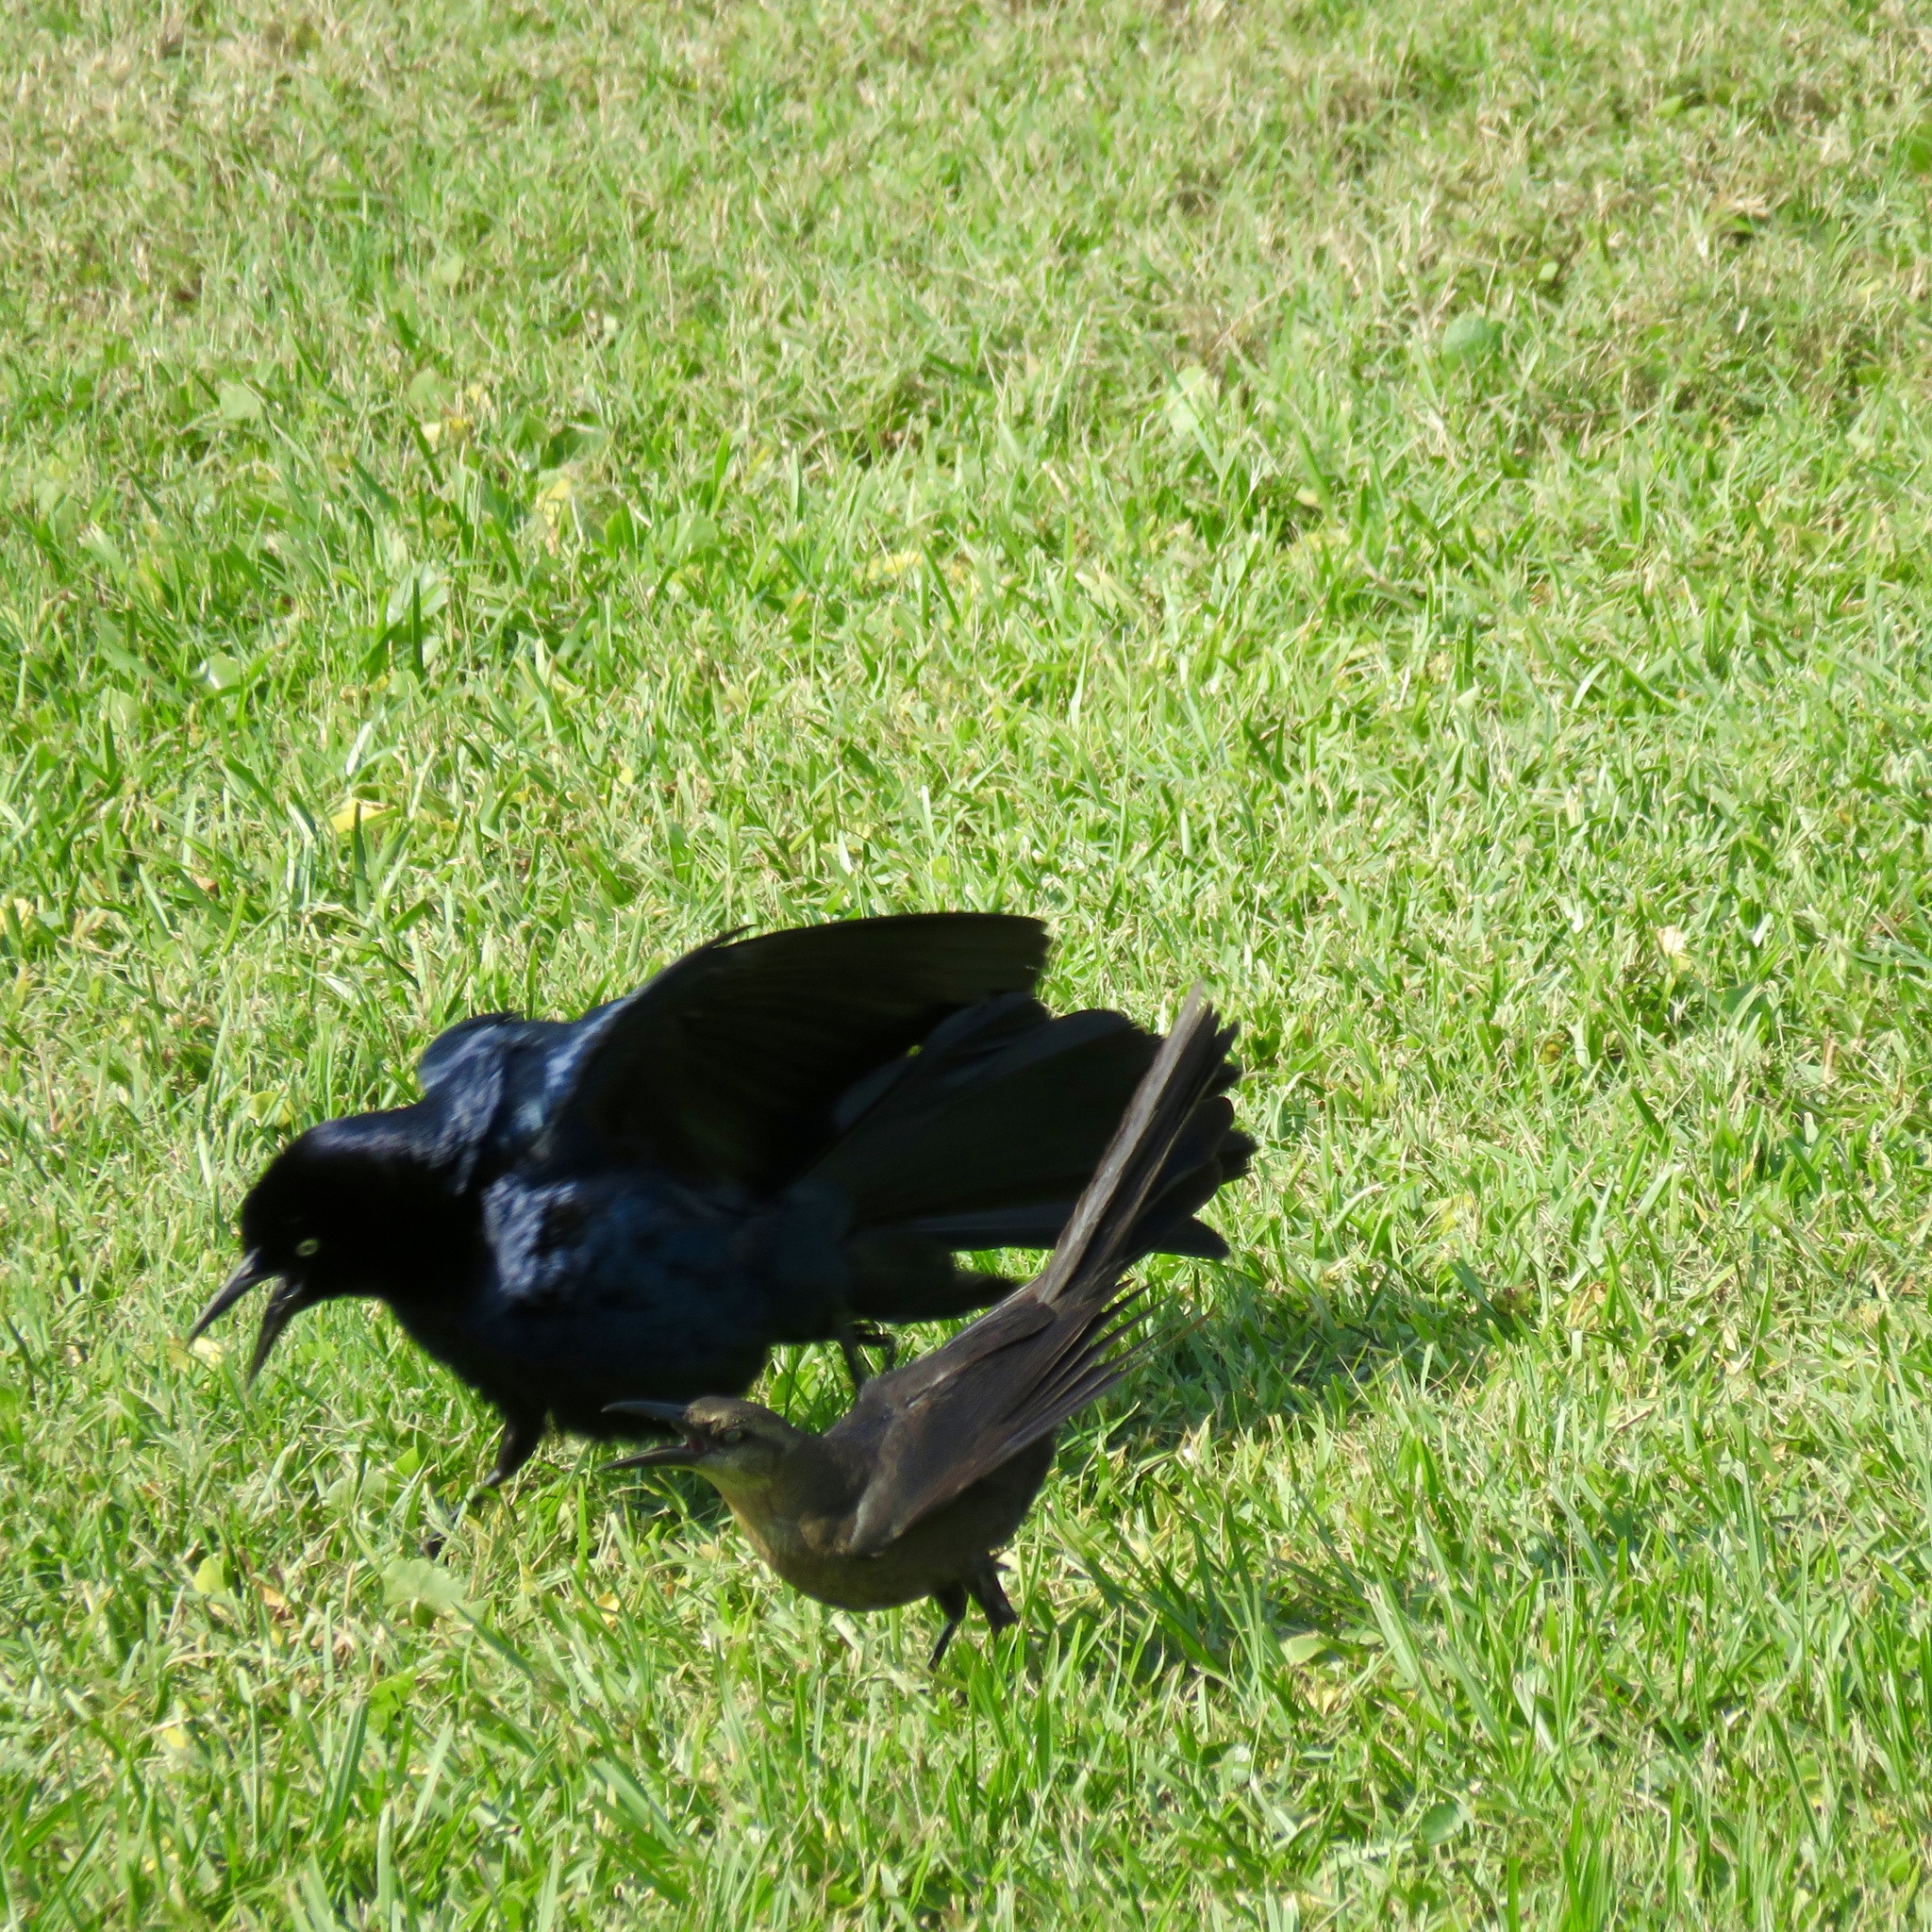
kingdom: Animalia
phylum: Chordata
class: Aves
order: Passeriformes
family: Icteridae
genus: Quiscalus
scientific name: Quiscalus mexicanus
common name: Great-tailed grackle
